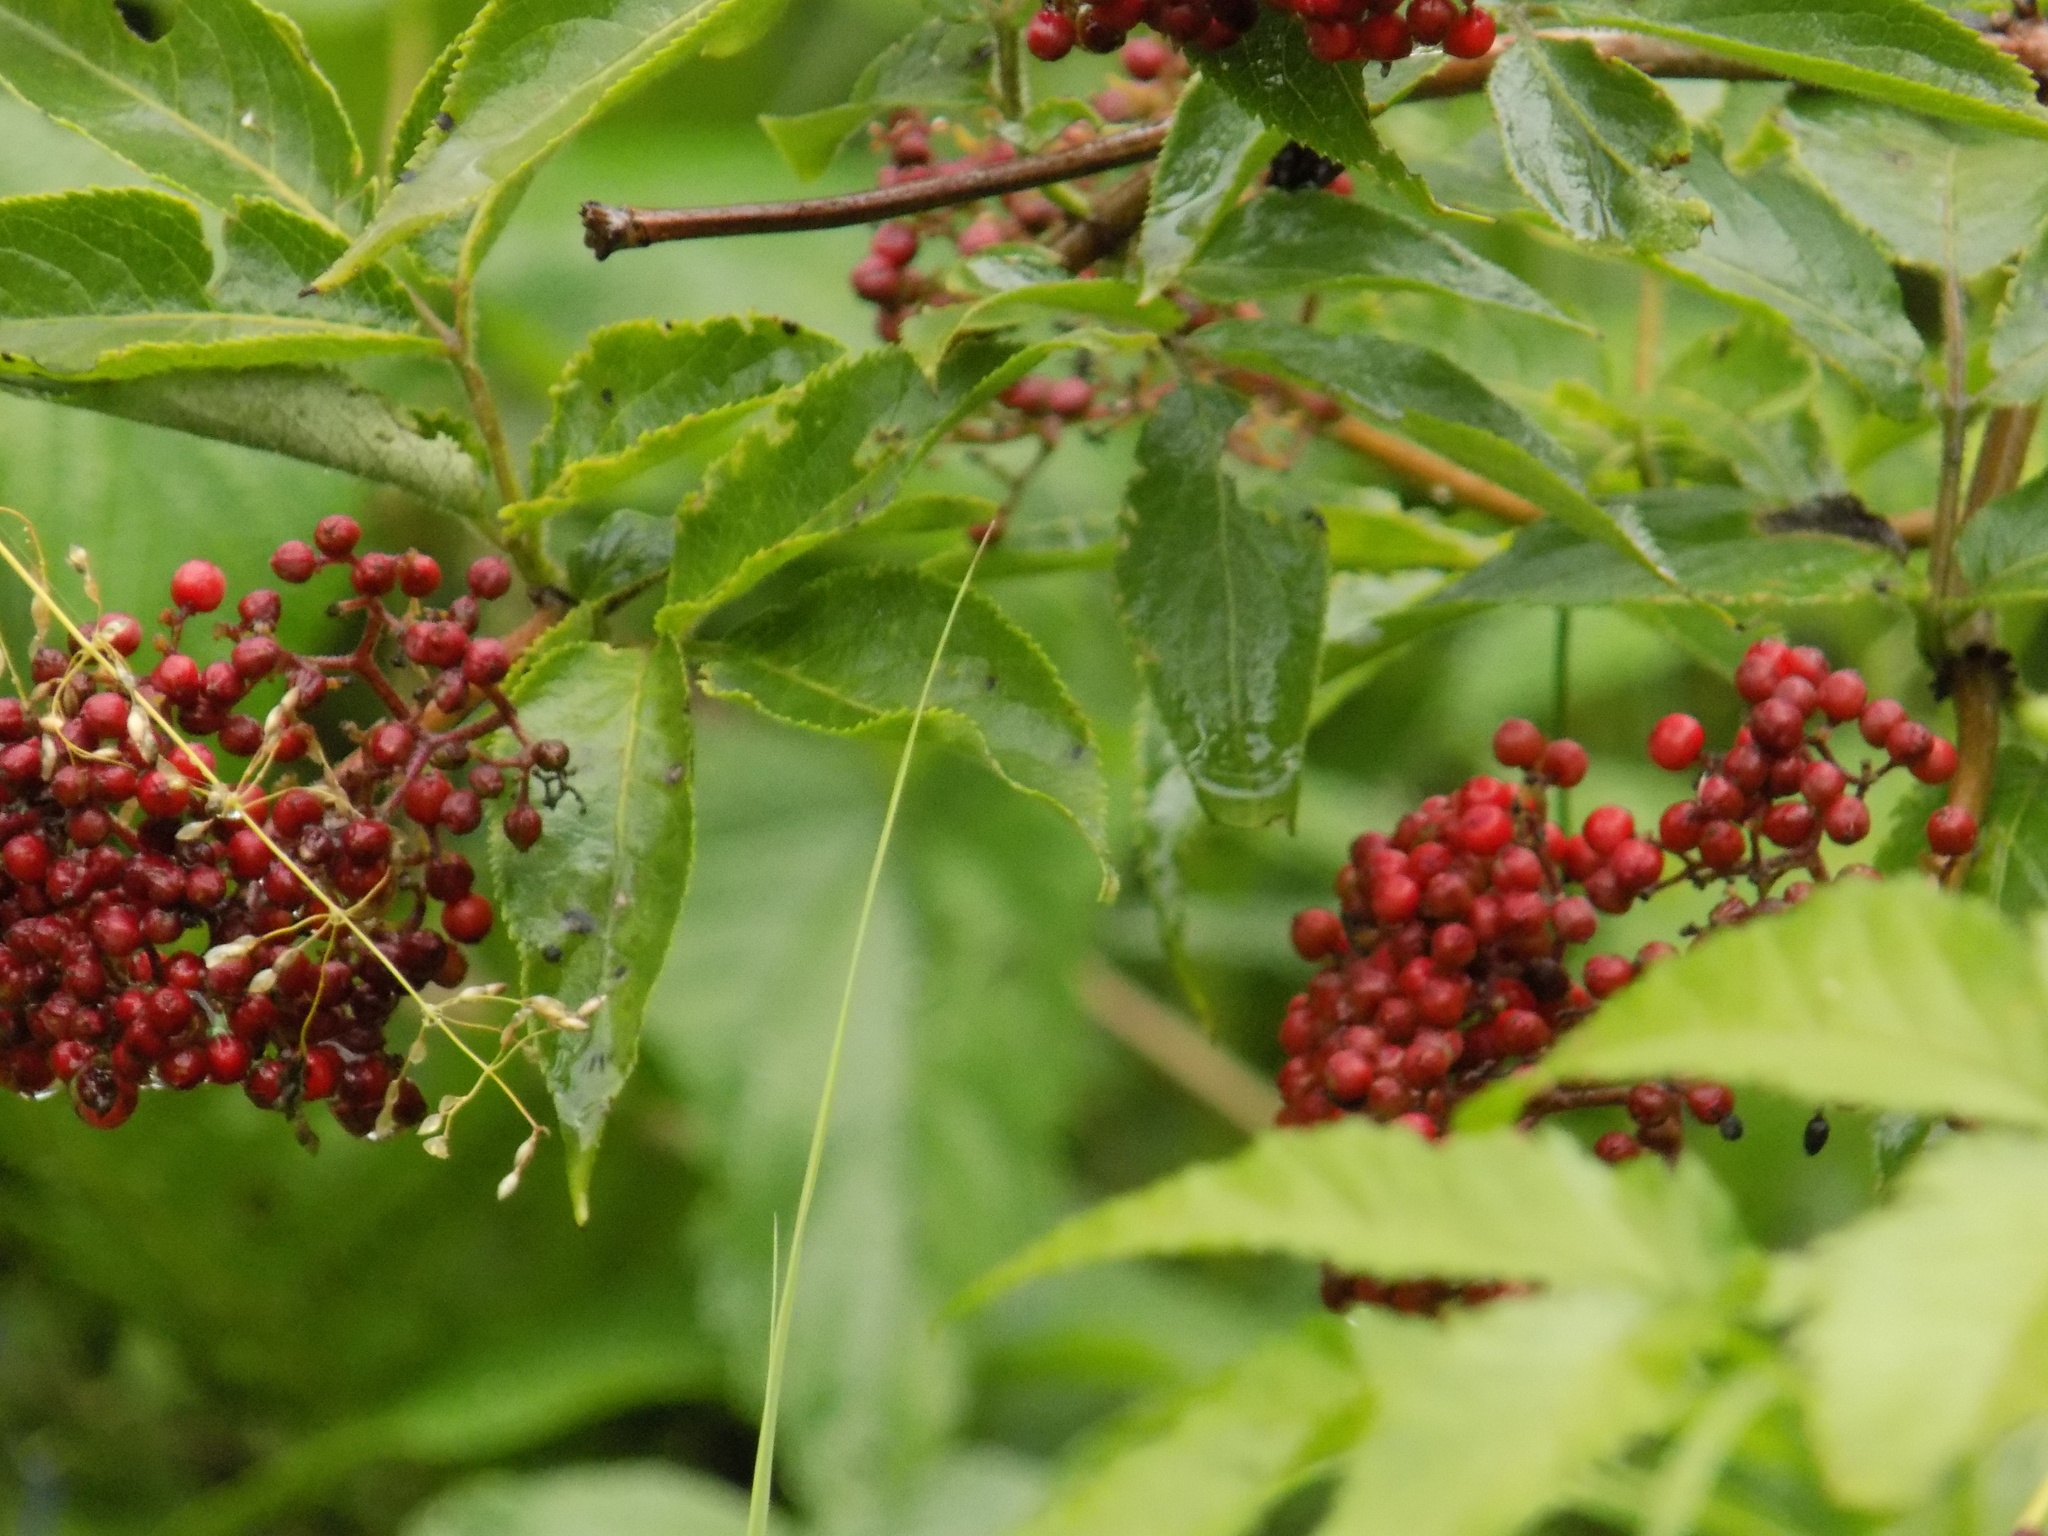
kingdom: Plantae
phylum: Tracheophyta
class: Magnoliopsida
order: Dipsacales
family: Viburnaceae
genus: Sambucus
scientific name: Sambucus sibirica
